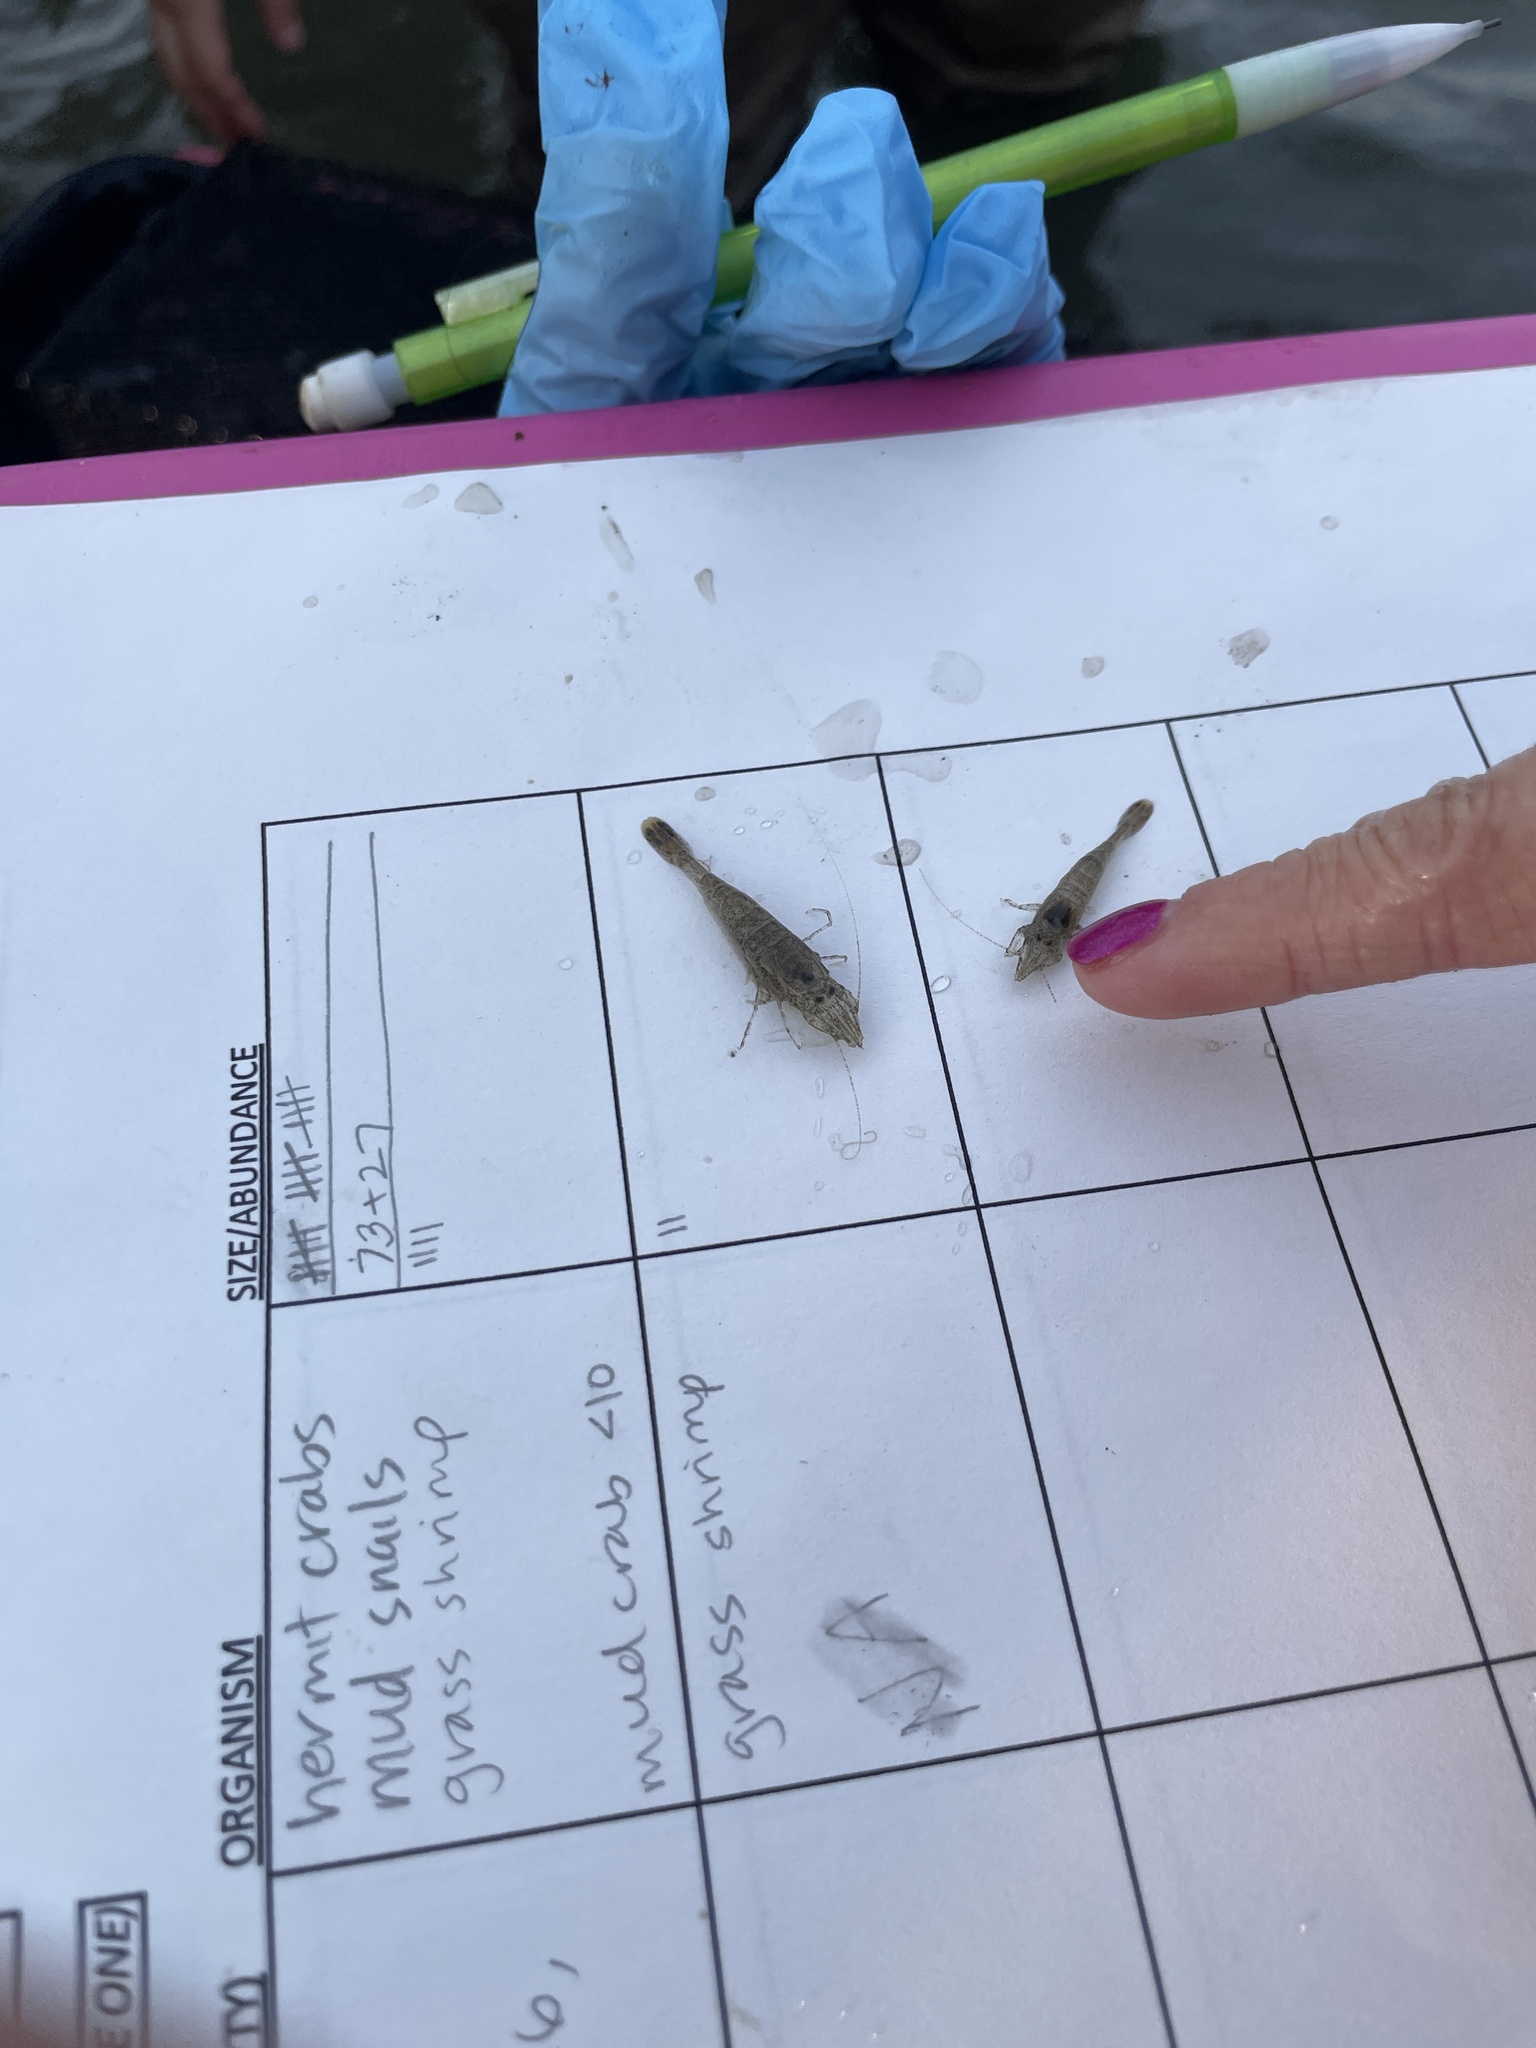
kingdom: Animalia
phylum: Arthropoda
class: Malacostraca
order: Decapoda
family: Crangonidae
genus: Crangon
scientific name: Crangon septemspinosa
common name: Bail shrimp
